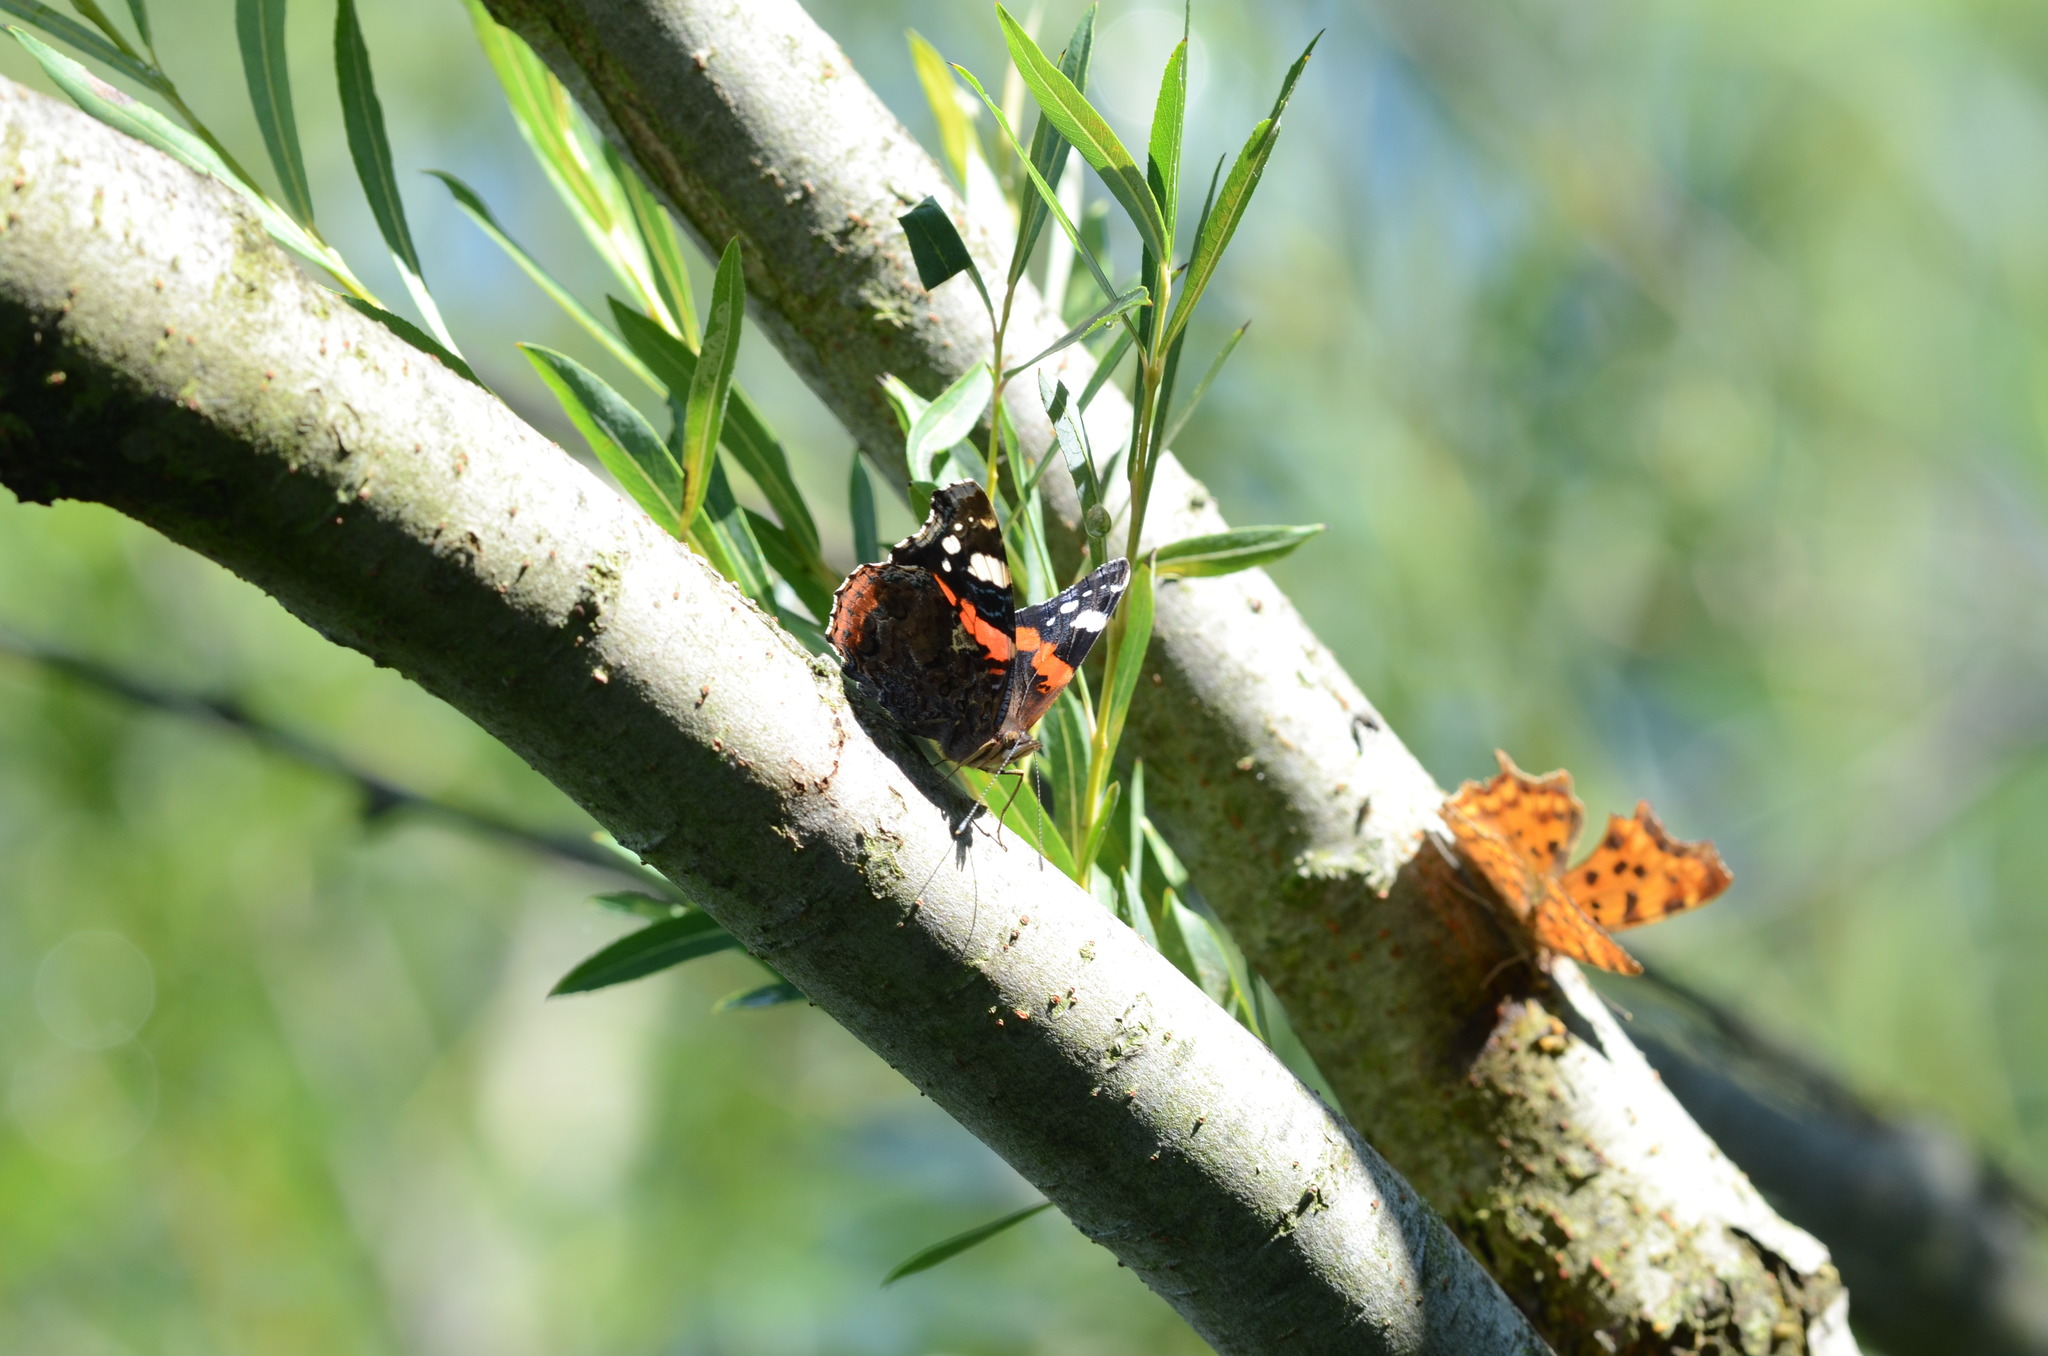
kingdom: Animalia
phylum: Arthropoda
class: Insecta
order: Lepidoptera
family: Nymphalidae
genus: Vanessa
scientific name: Vanessa atalanta
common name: Red admiral
